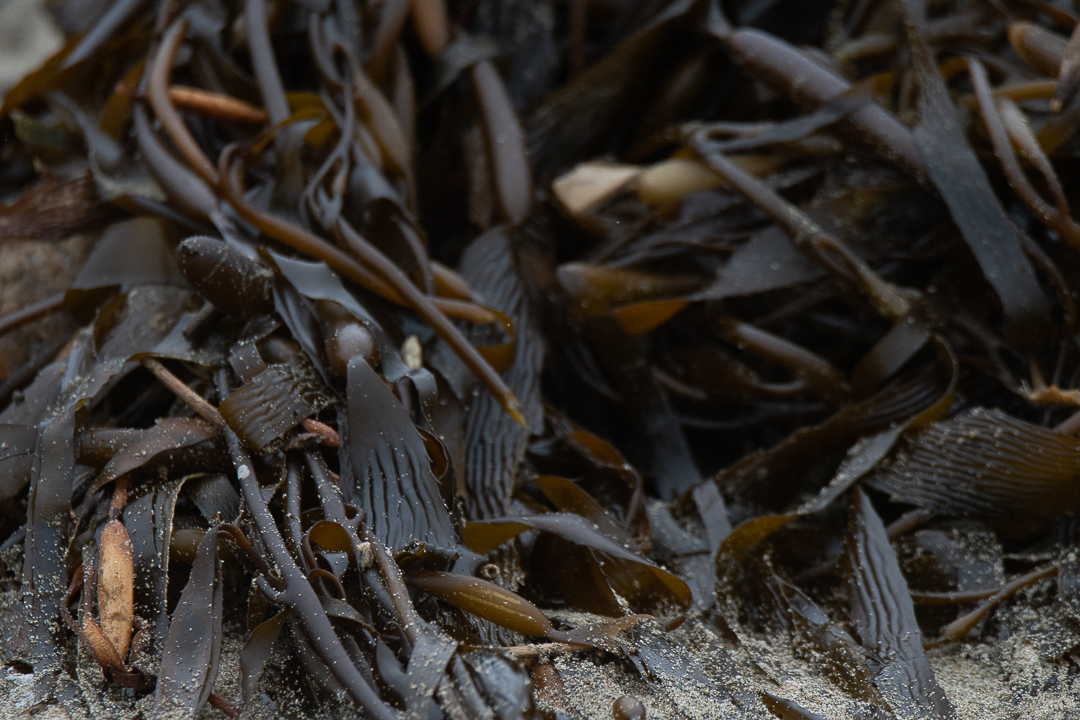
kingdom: Chromista
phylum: Ochrophyta
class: Phaeophyceae
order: Laminariales
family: Laminariaceae
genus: Macrocystis
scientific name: Macrocystis pyrifera
